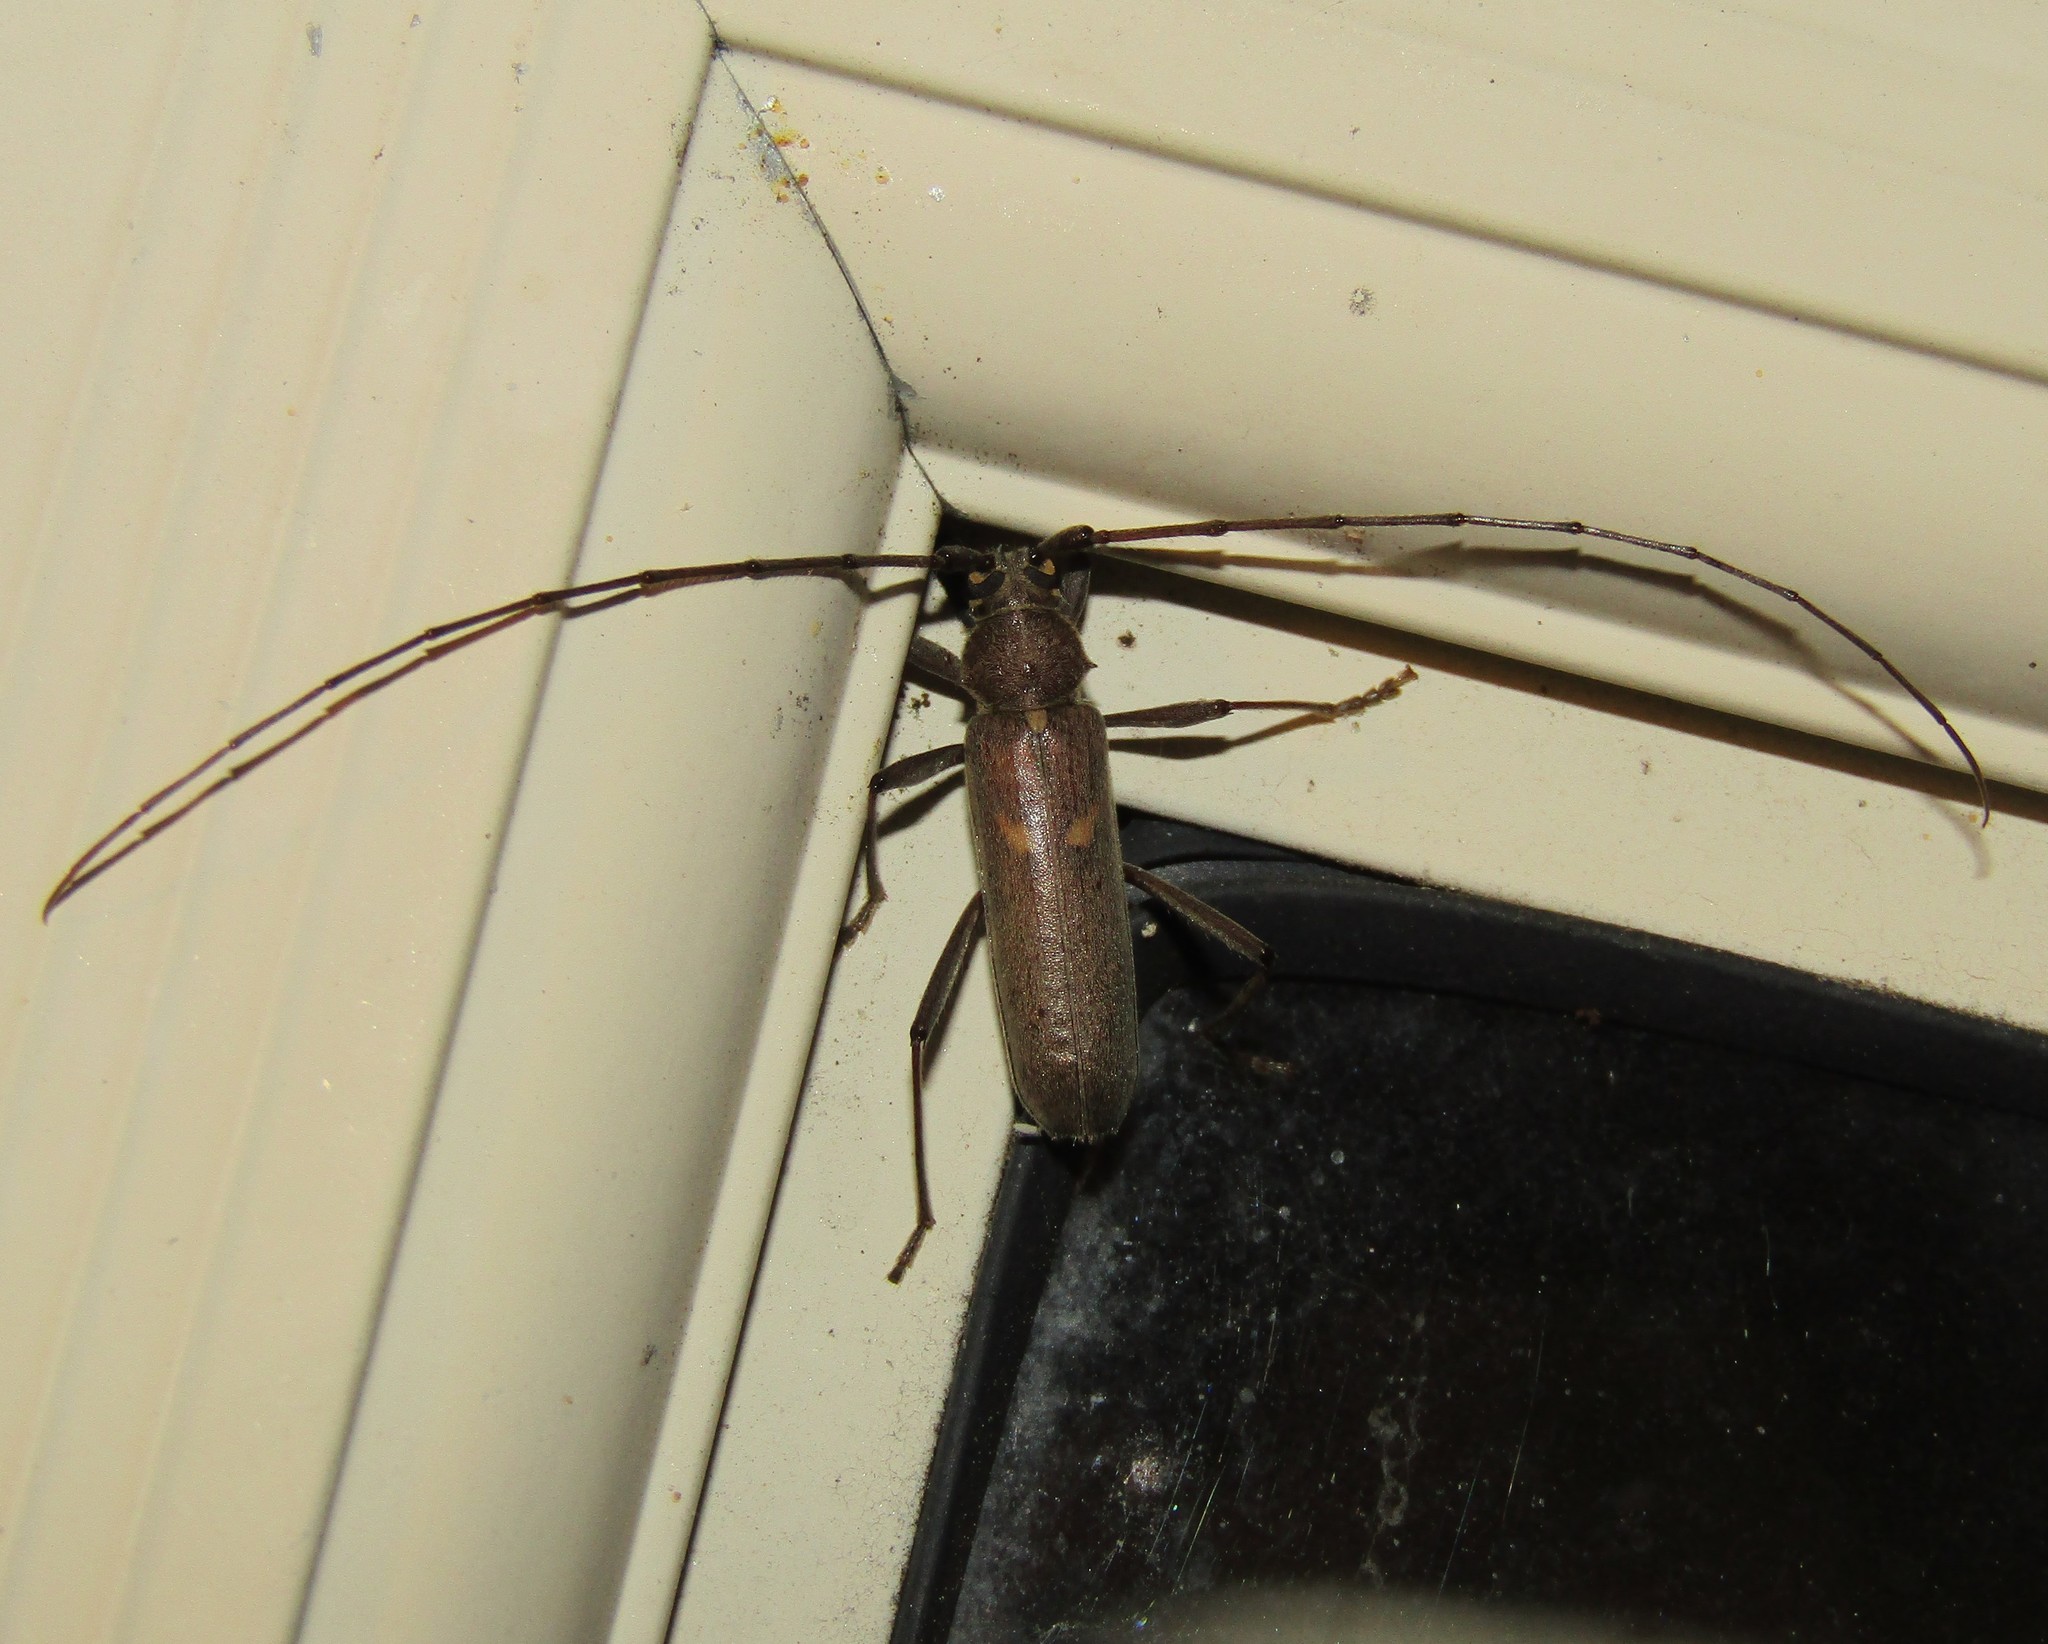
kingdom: Animalia
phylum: Arthropoda
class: Insecta
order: Coleoptera
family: Cerambycidae
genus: Knulliana
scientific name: Knulliana cincta
